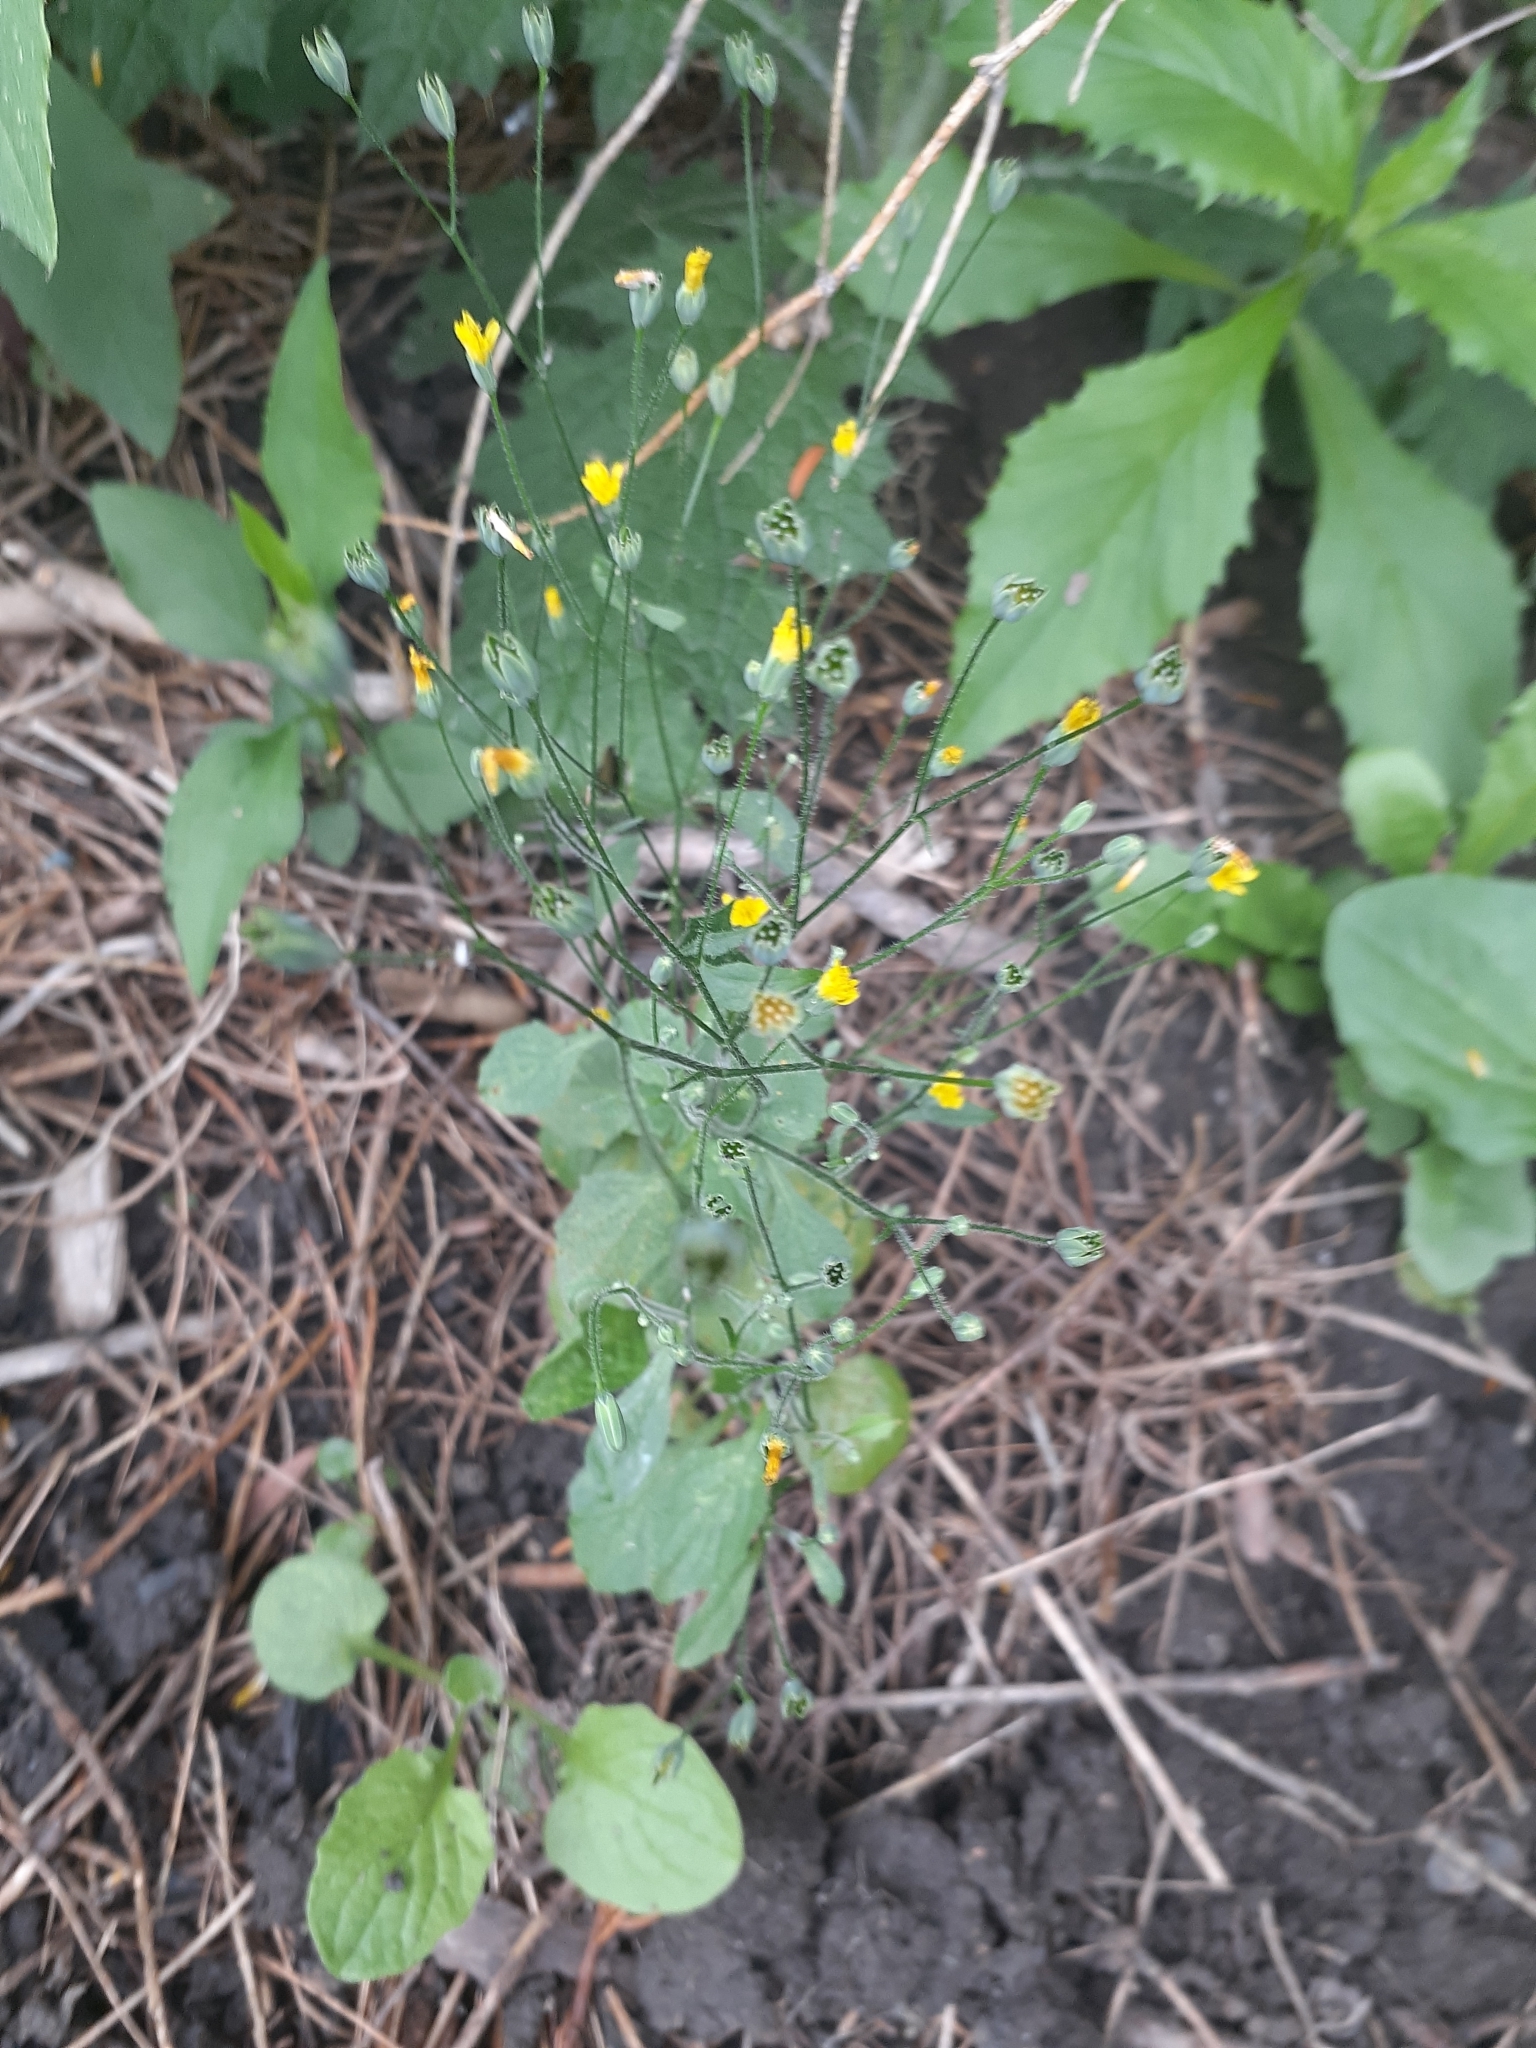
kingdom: Plantae
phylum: Tracheophyta
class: Magnoliopsida
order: Asterales
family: Asteraceae
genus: Lapsana
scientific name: Lapsana communis
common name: Nipplewort
